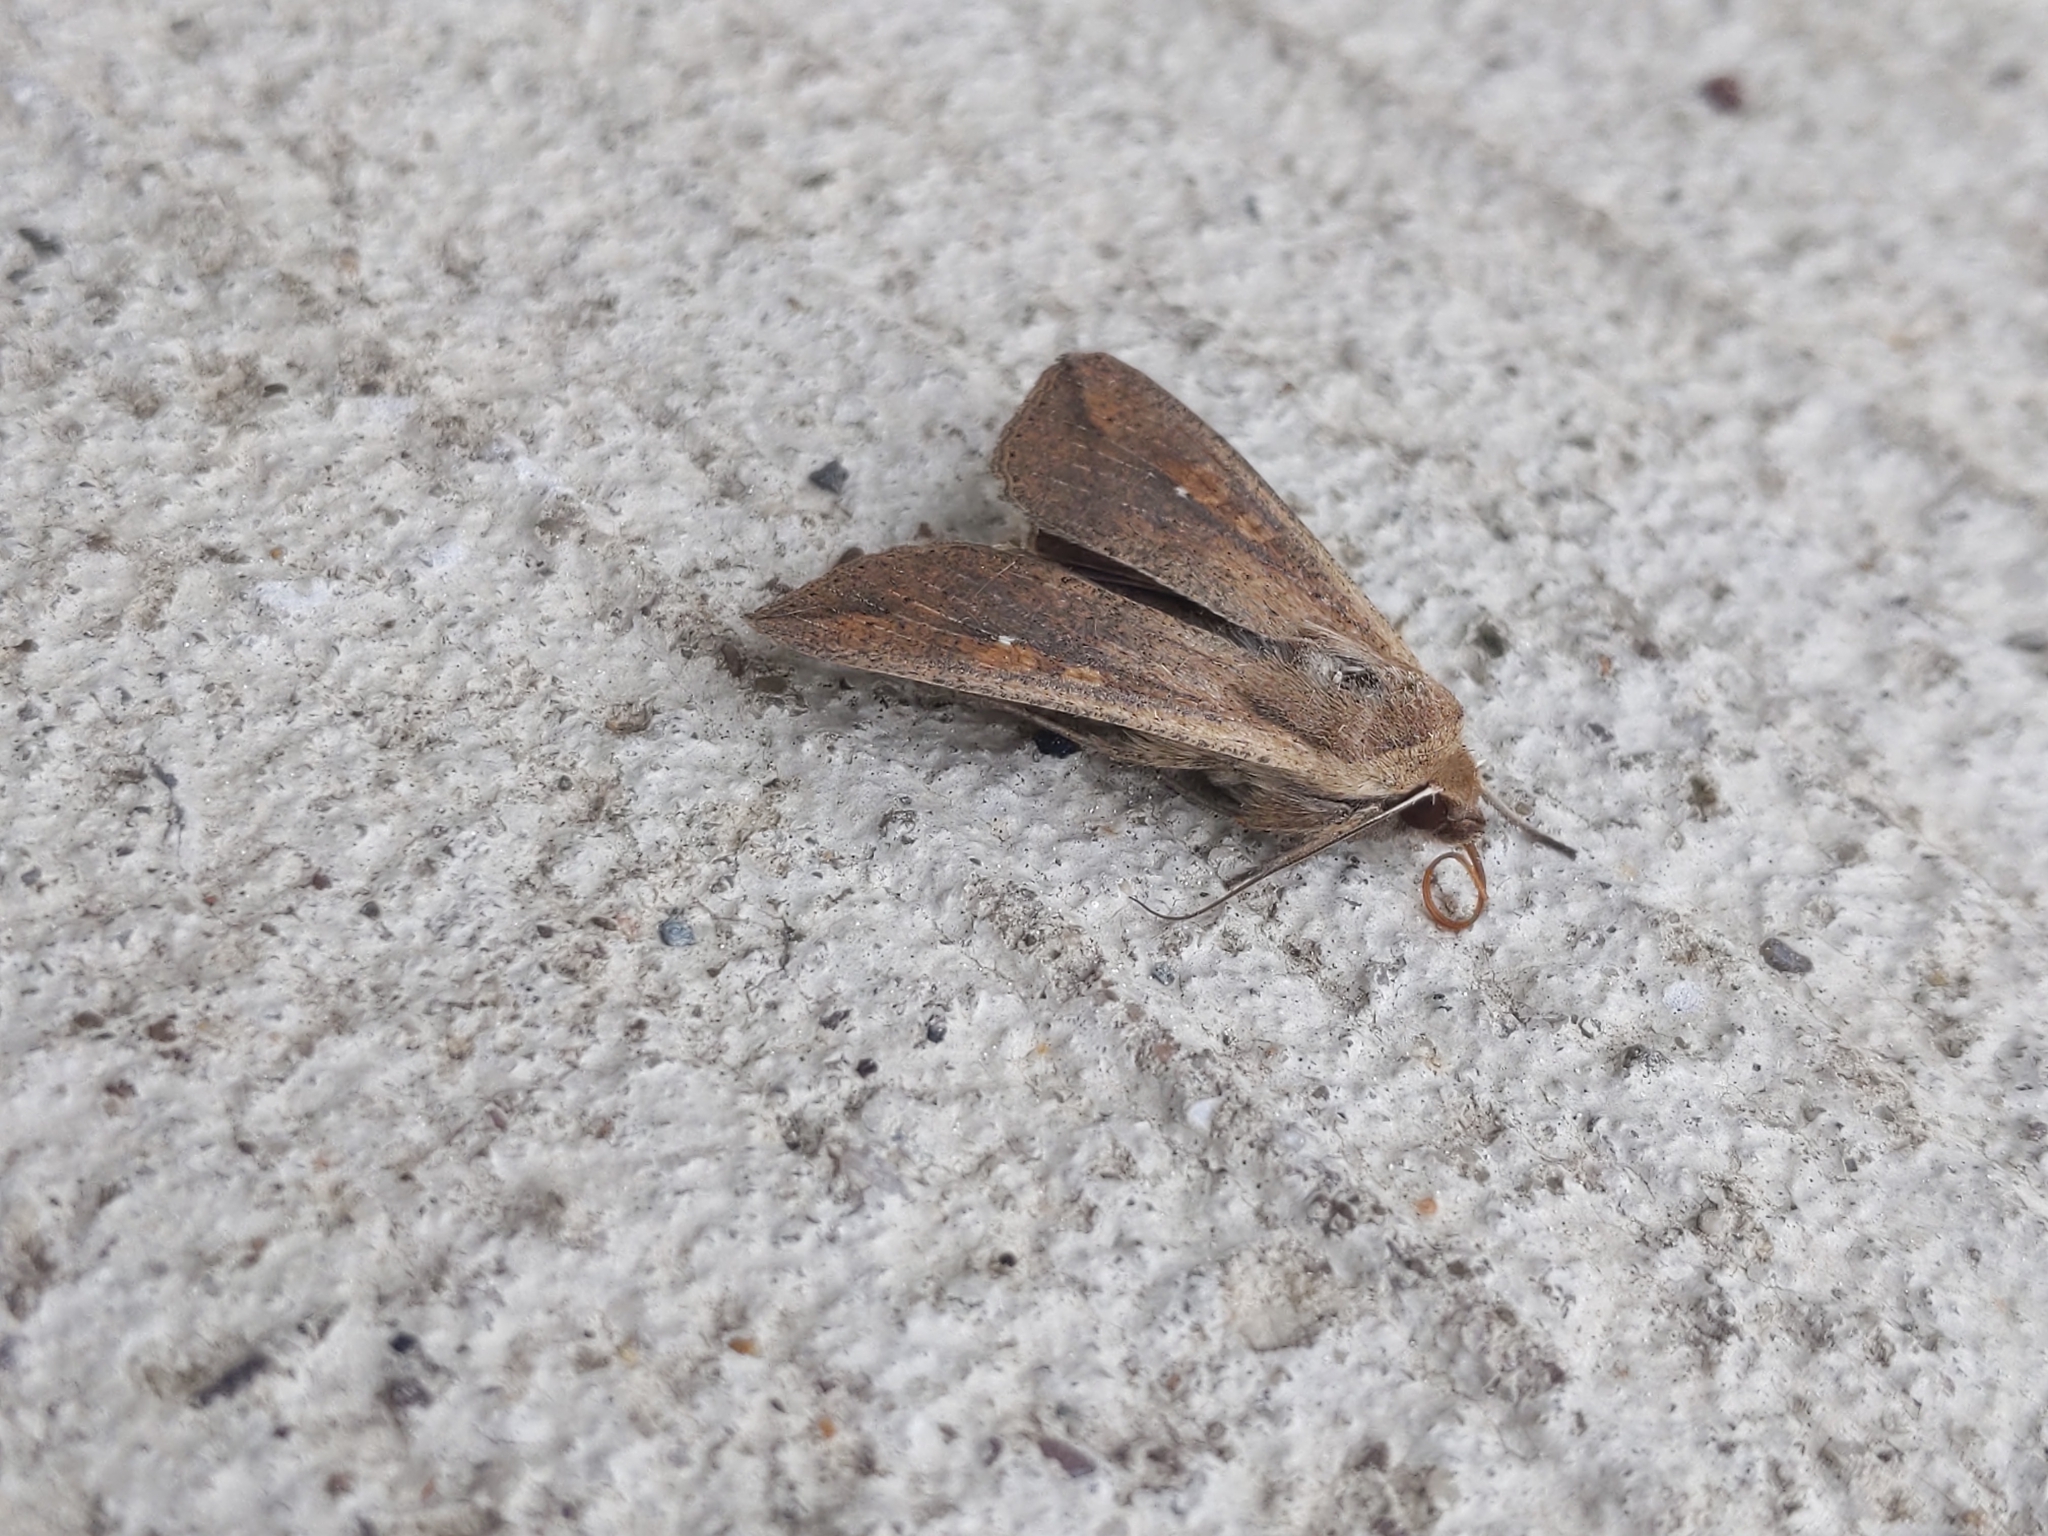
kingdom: Animalia
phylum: Arthropoda
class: Insecta
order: Lepidoptera
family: Noctuidae
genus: Mythimna
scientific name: Mythimna unipuncta
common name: White-speck
